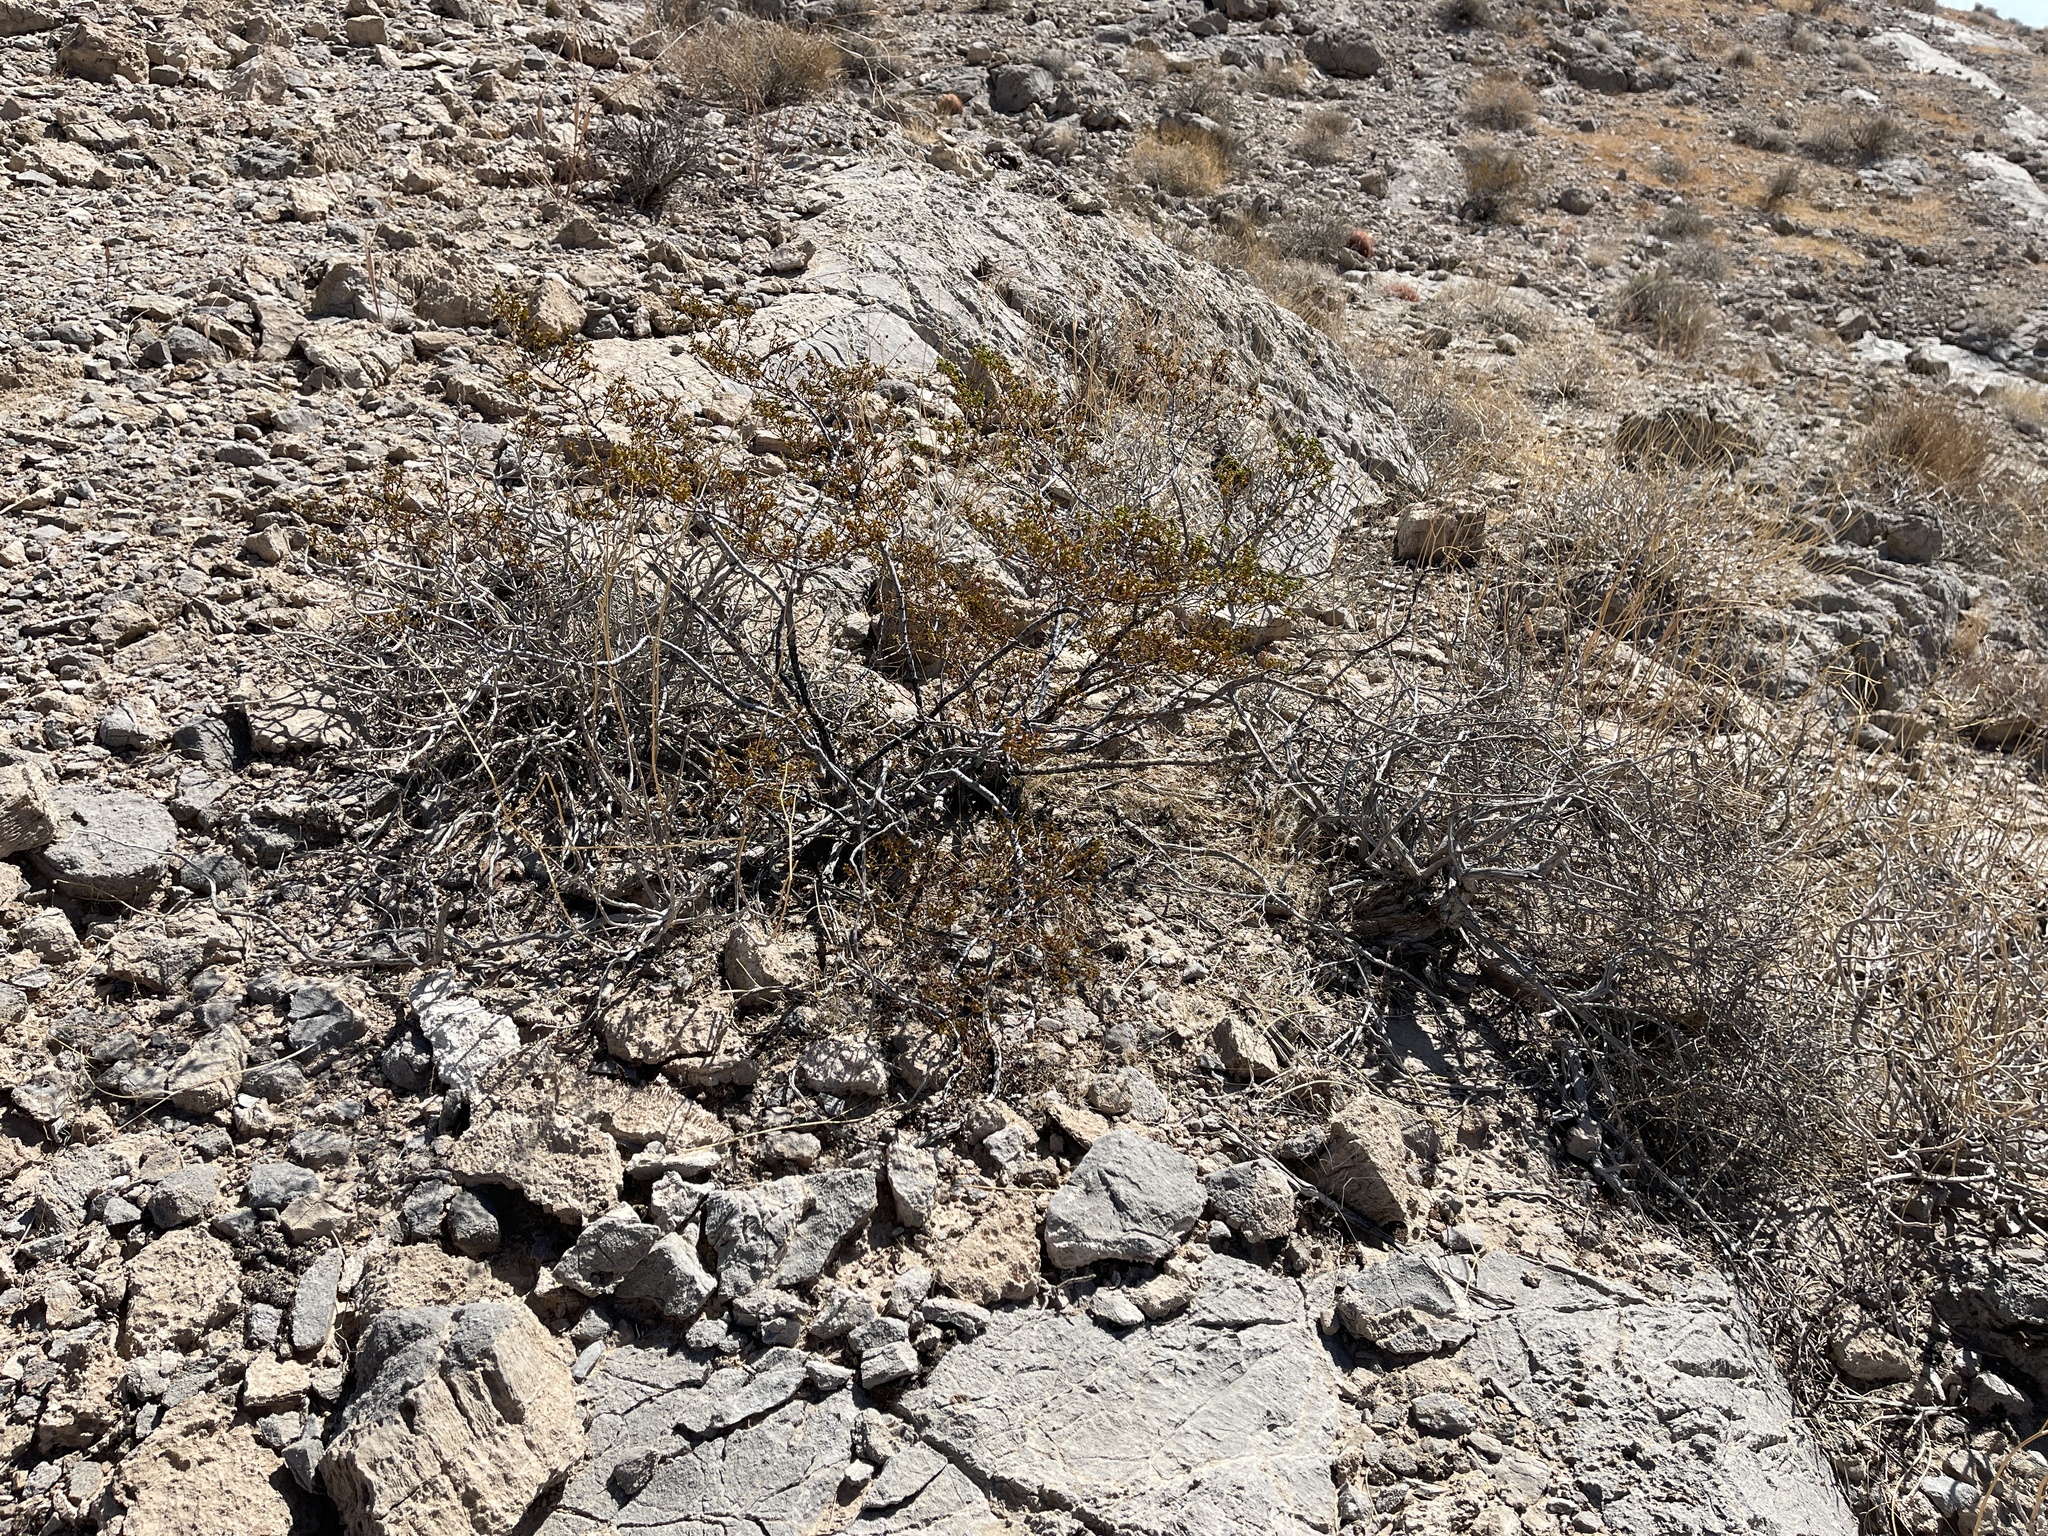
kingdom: Plantae
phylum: Tracheophyta
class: Magnoliopsida
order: Zygophyllales
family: Zygophyllaceae
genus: Larrea
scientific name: Larrea tridentata
